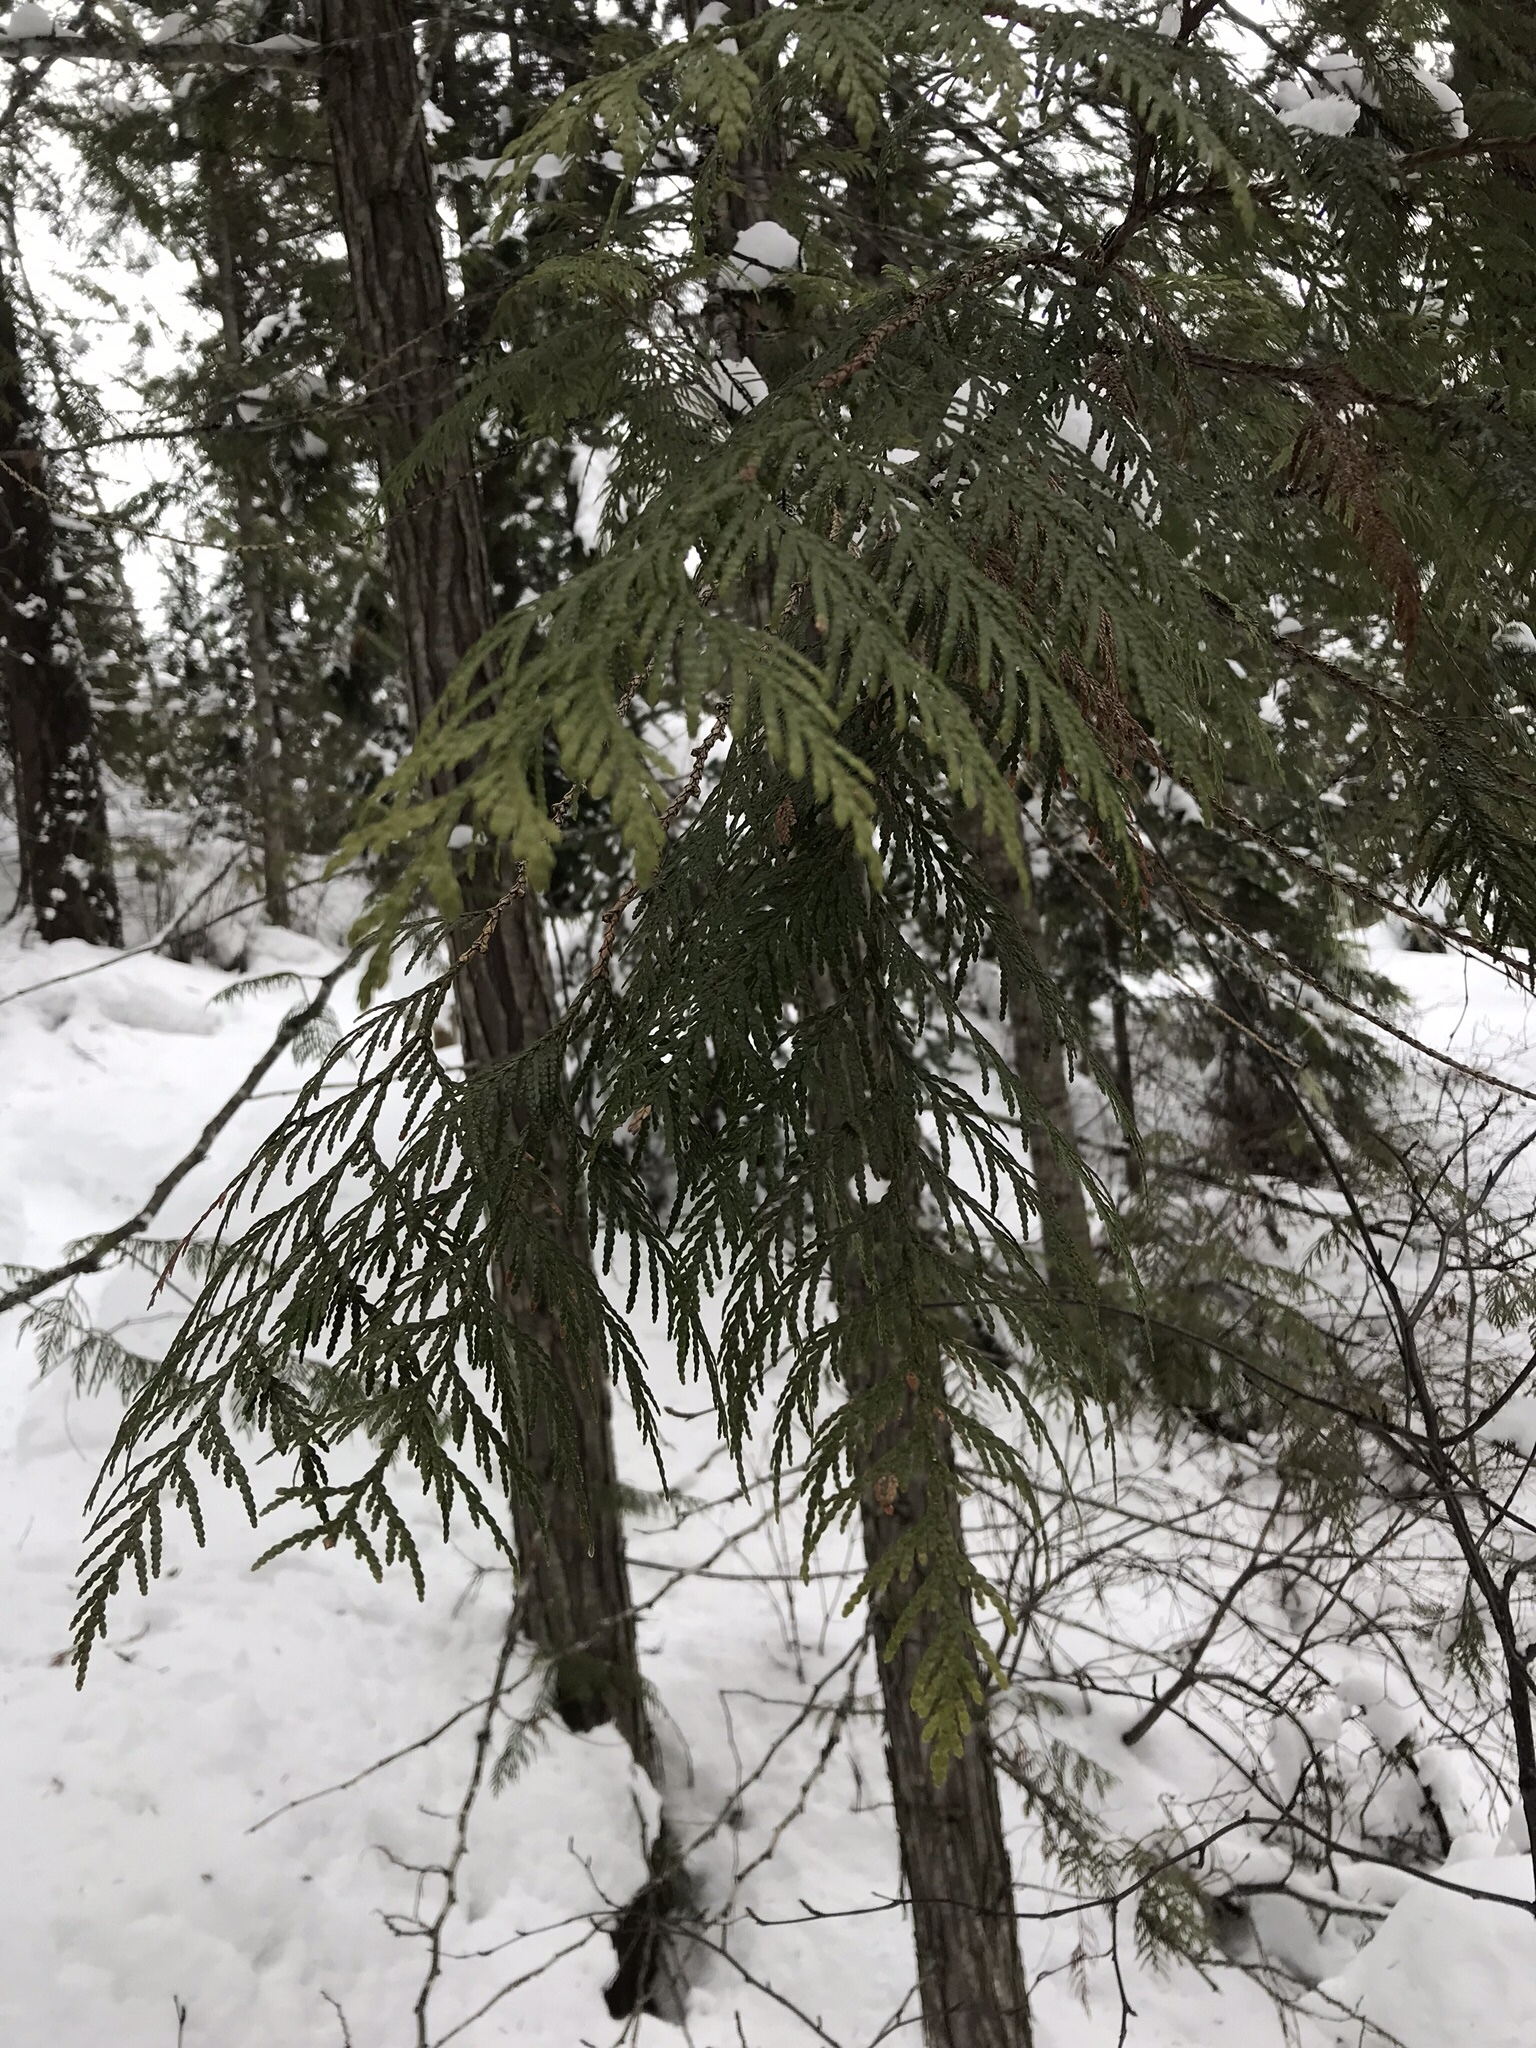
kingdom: Plantae
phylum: Tracheophyta
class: Pinopsida
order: Pinales
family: Cupressaceae
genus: Thuja
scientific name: Thuja plicata
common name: Western red-cedar
